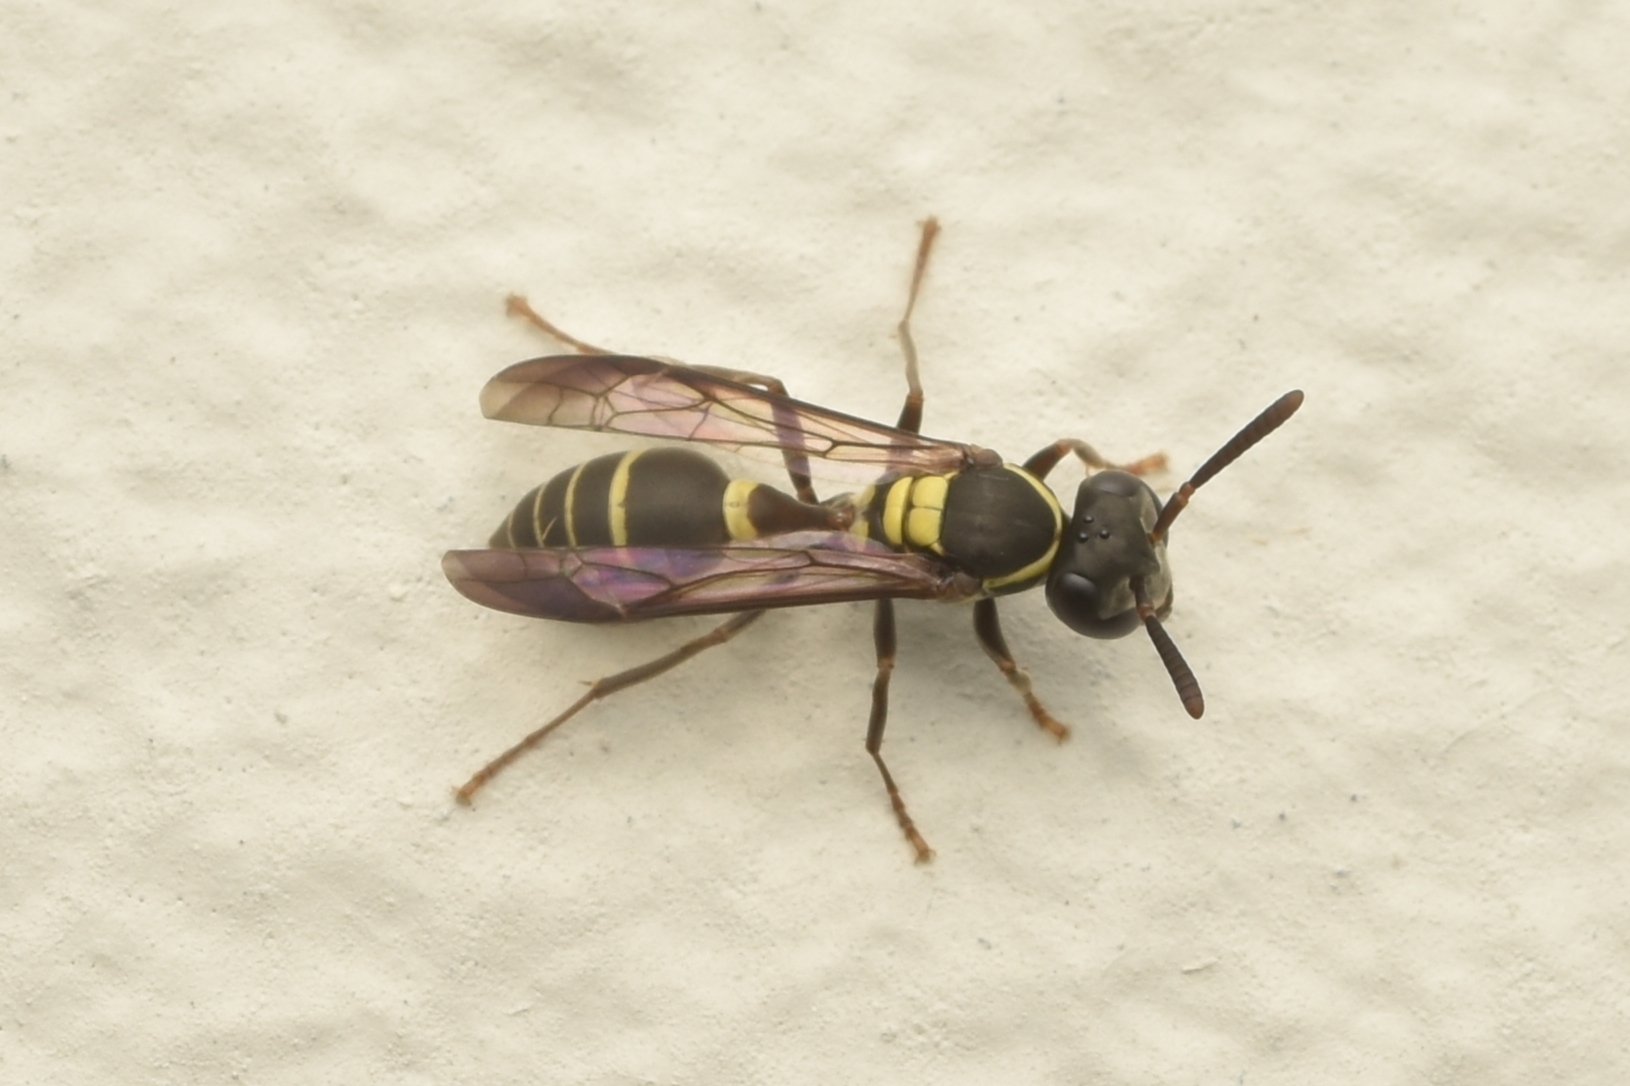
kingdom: Animalia
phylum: Arthropoda
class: Insecta
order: Hymenoptera
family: Eumenidae
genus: Polybia
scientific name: Polybia occidentalis
